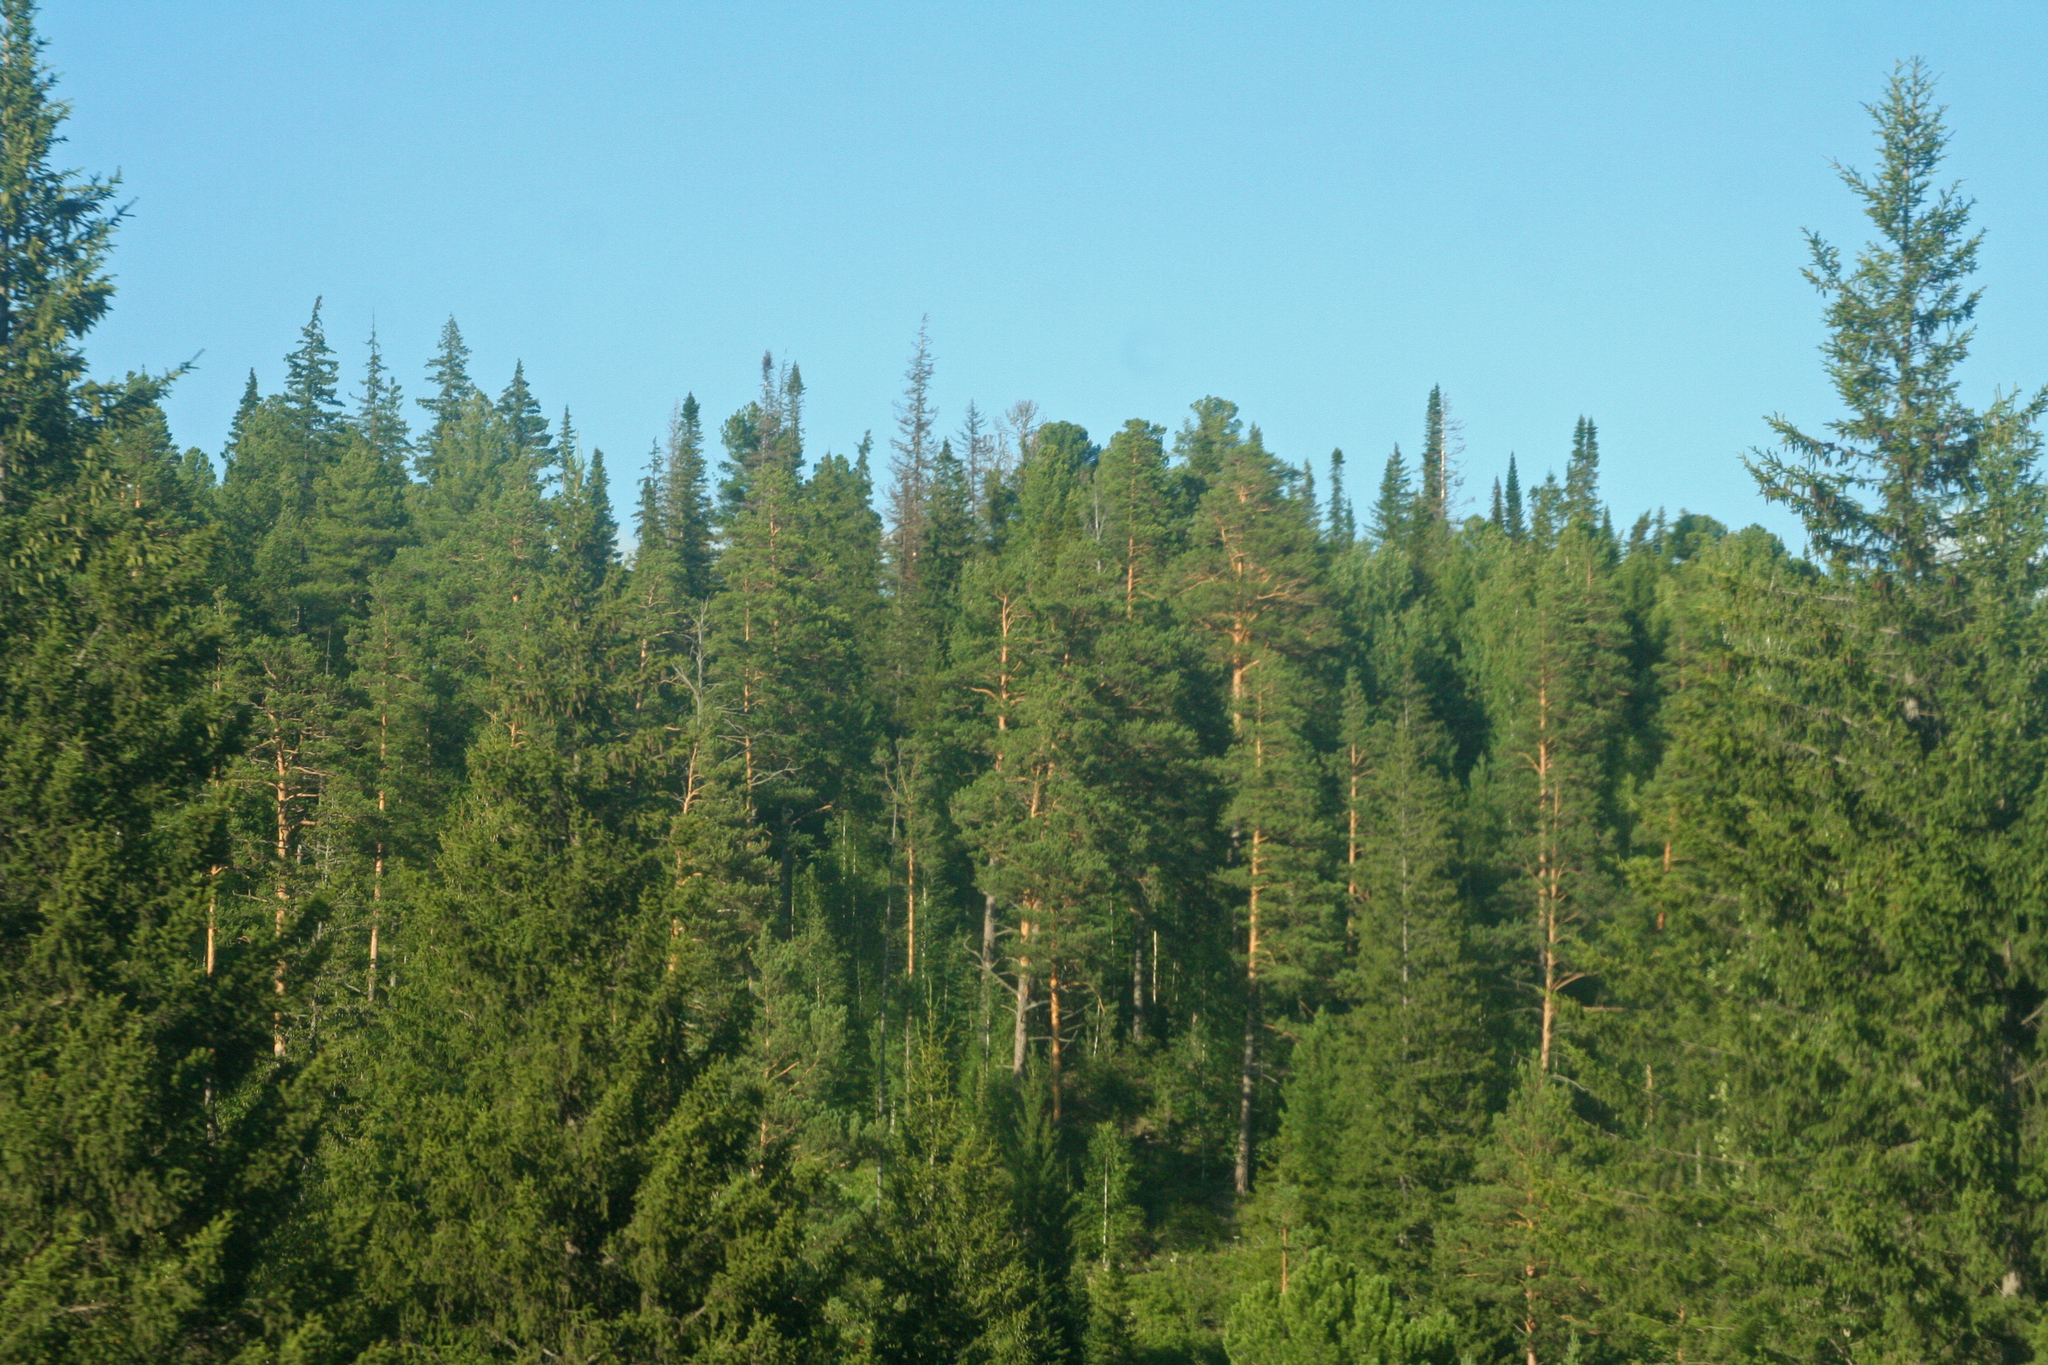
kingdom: Plantae
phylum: Tracheophyta
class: Pinopsida
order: Pinales
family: Pinaceae
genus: Pinus
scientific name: Pinus sylvestris
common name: Scots pine
